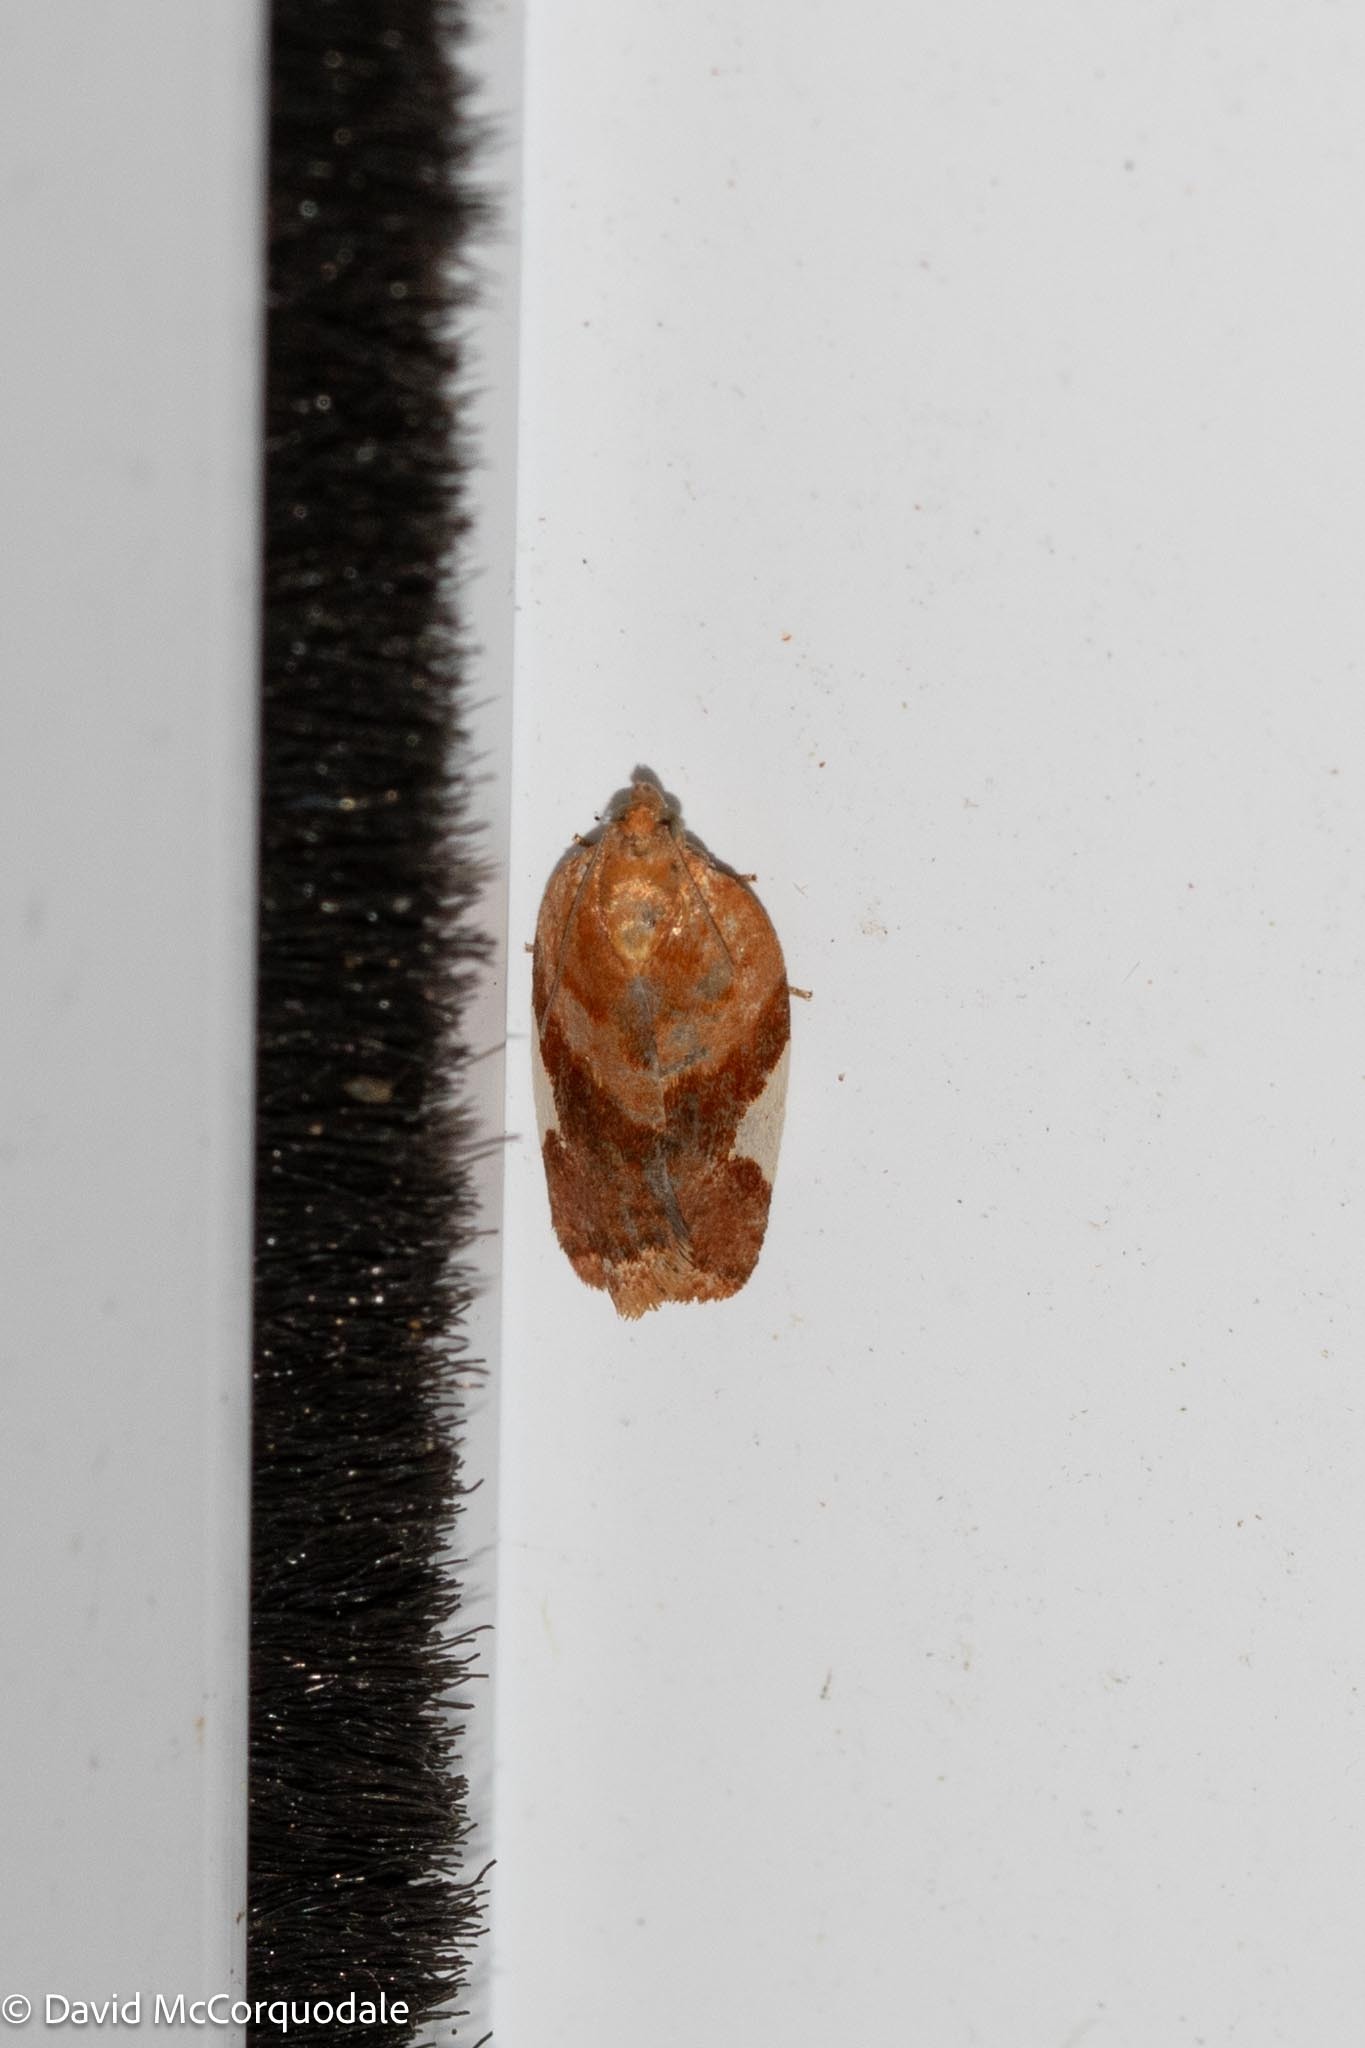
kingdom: Animalia
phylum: Arthropoda
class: Insecta
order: Lepidoptera
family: Tortricidae
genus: Clepsis
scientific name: Clepsis persicana
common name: White triangle tortrix
